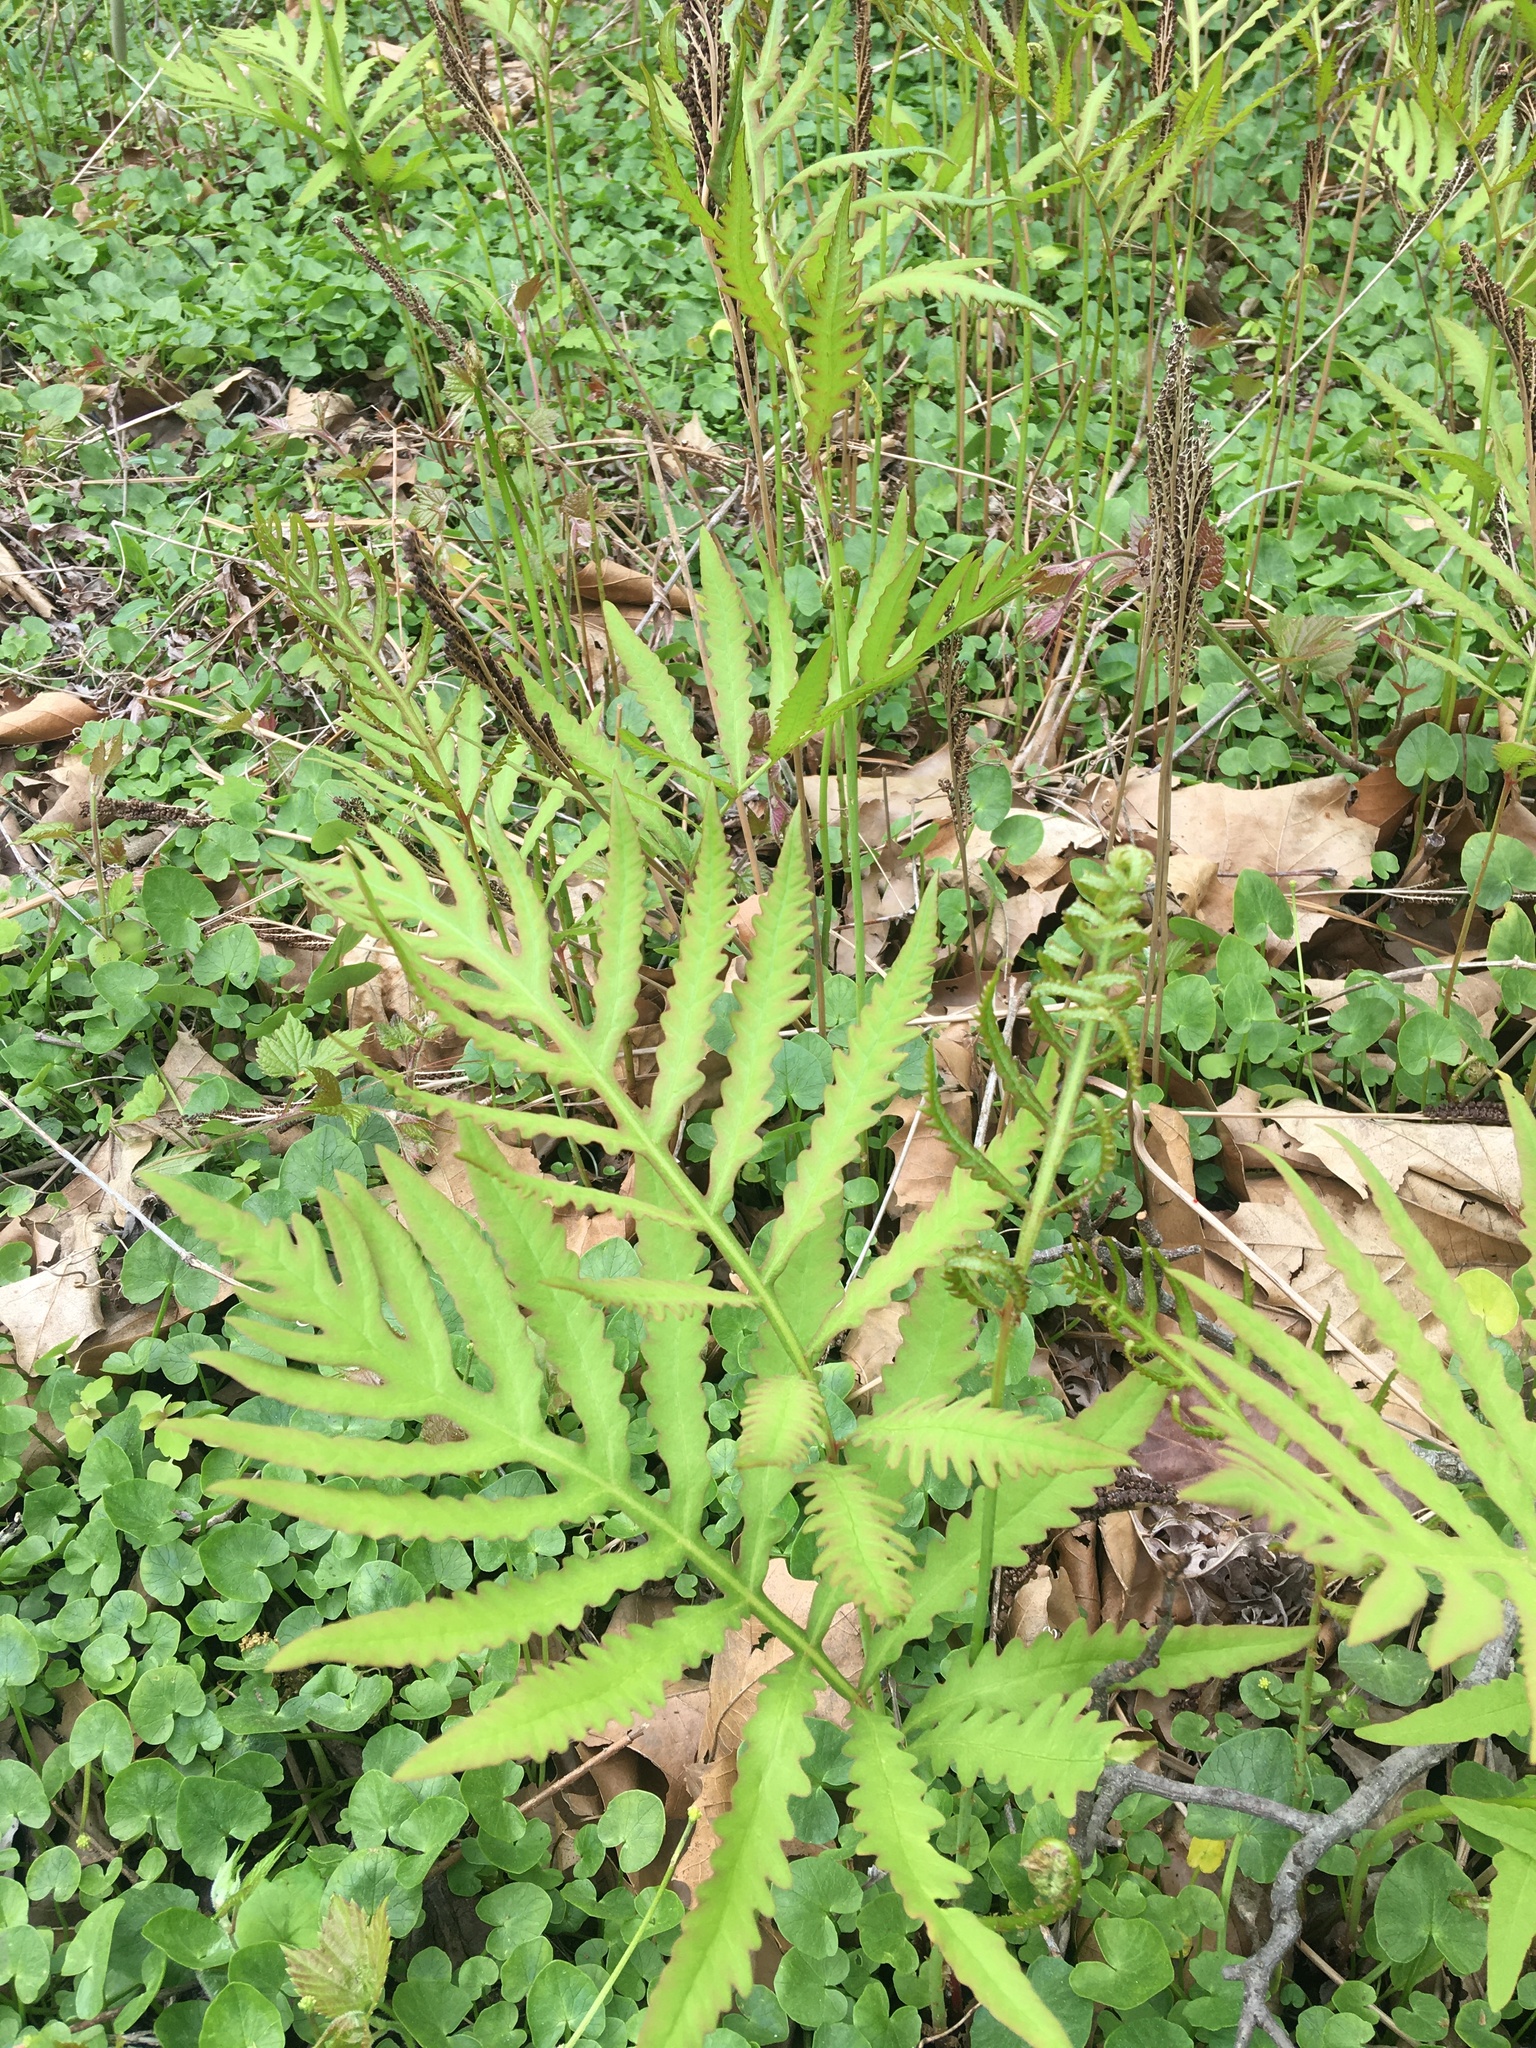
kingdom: Plantae
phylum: Tracheophyta
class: Polypodiopsida
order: Polypodiales
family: Onocleaceae
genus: Onoclea
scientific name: Onoclea sensibilis
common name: Sensitive fern
